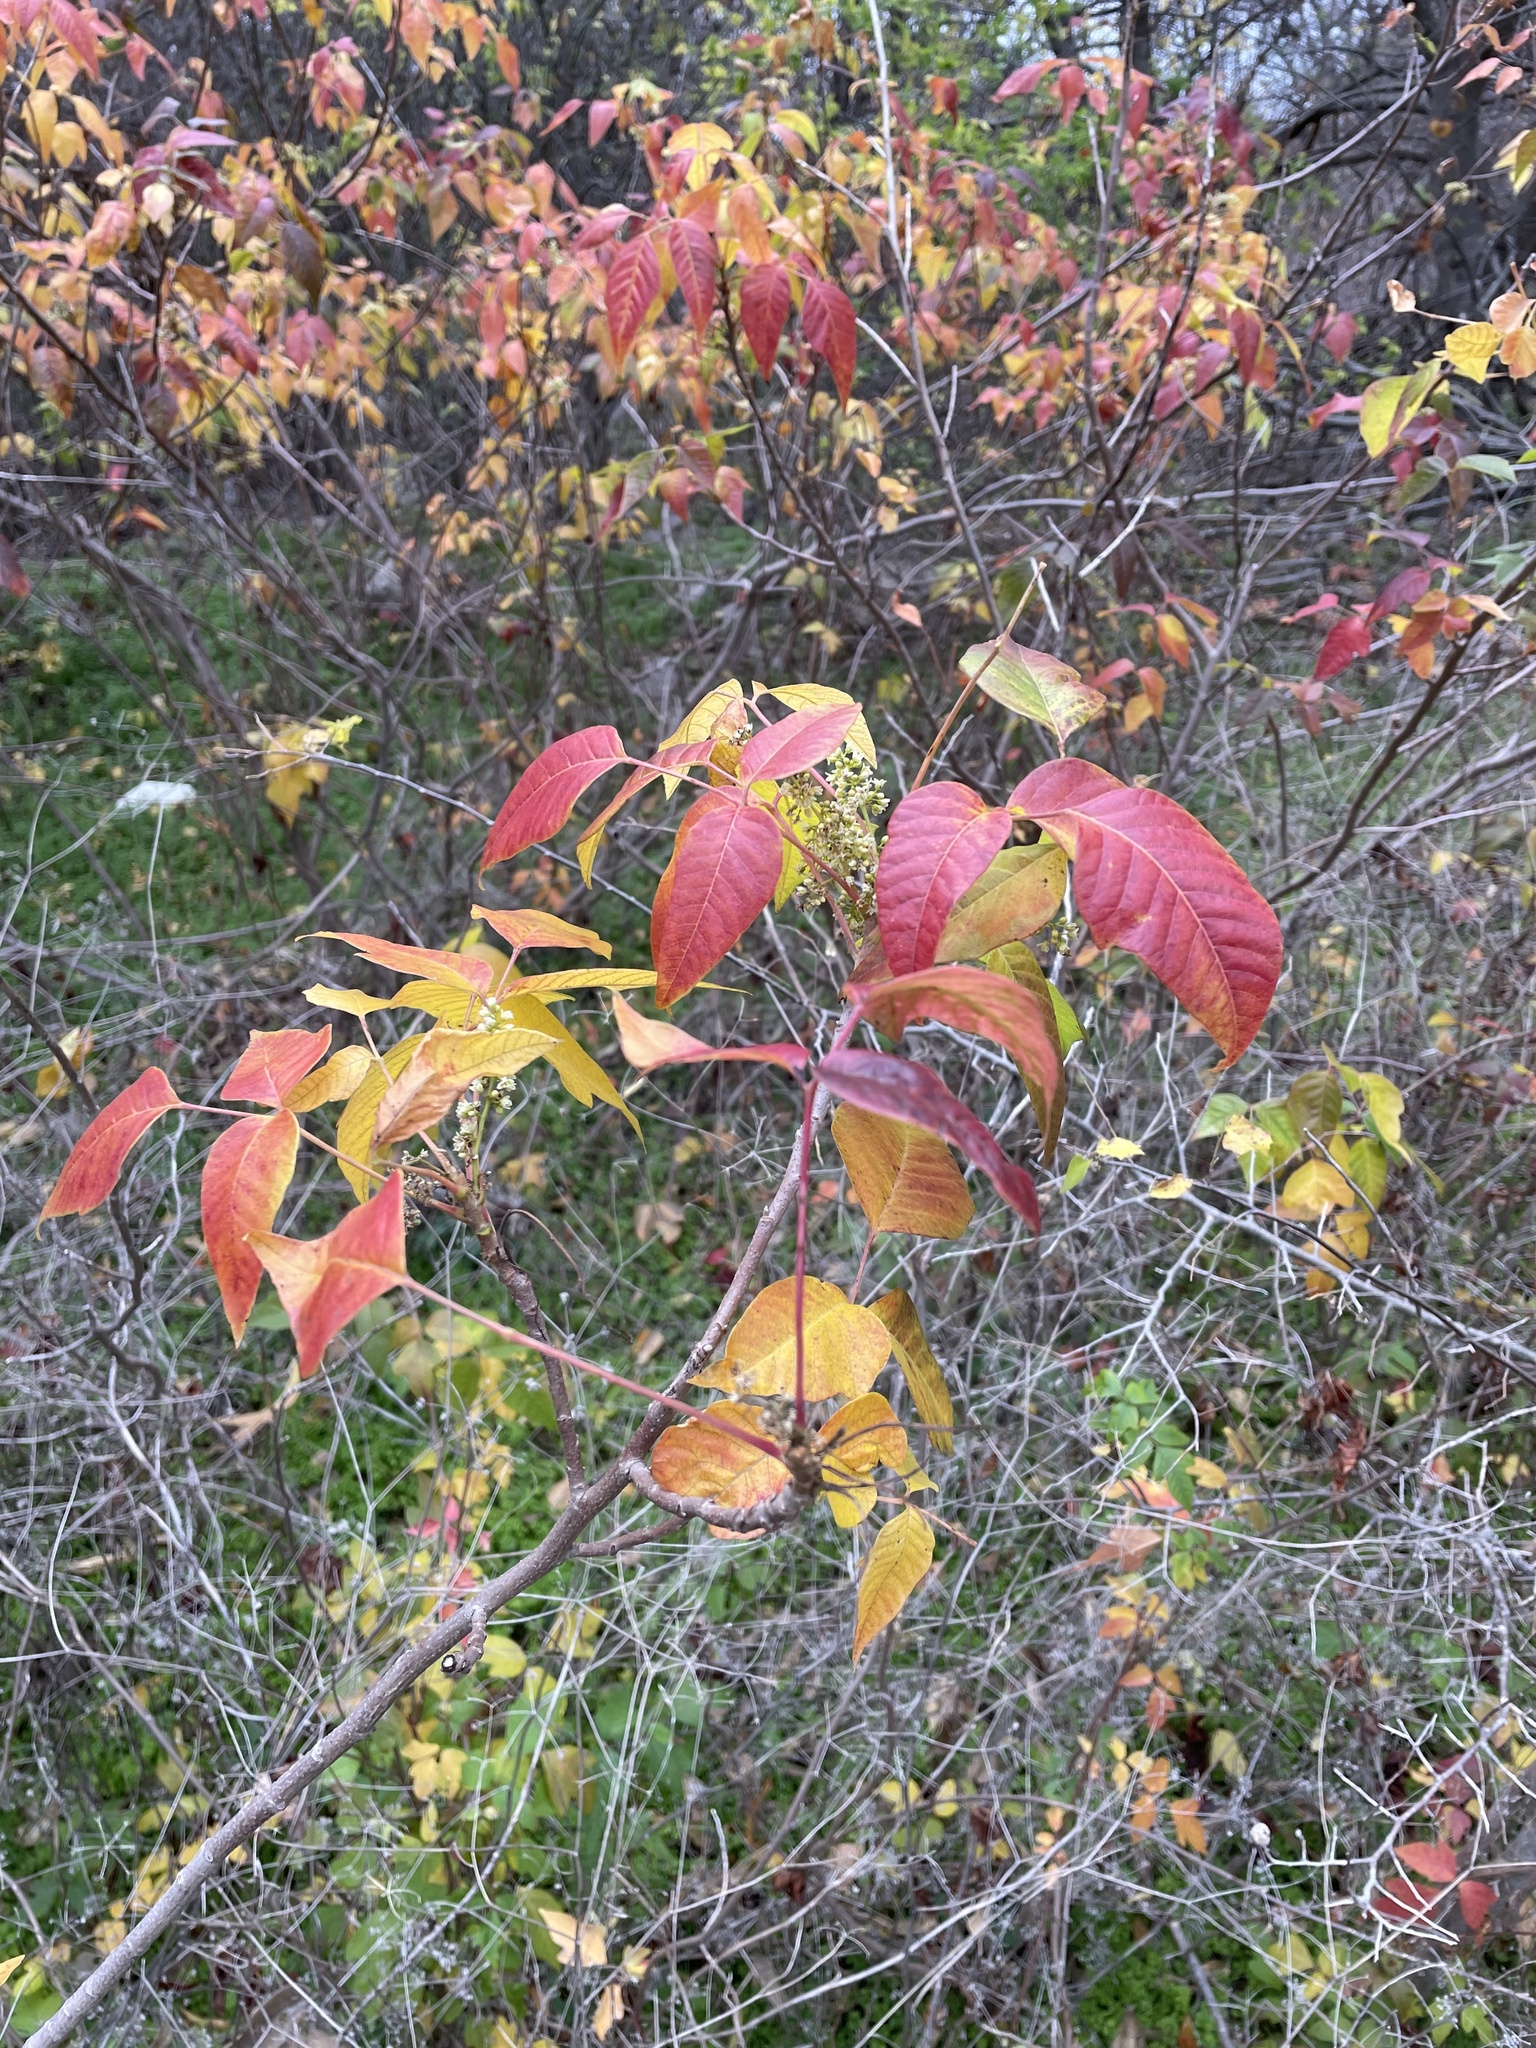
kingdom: Plantae
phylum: Tracheophyta
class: Magnoliopsida
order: Sapindales
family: Anacardiaceae
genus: Toxicodendron
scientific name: Toxicodendron radicans
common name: Poison ivy
